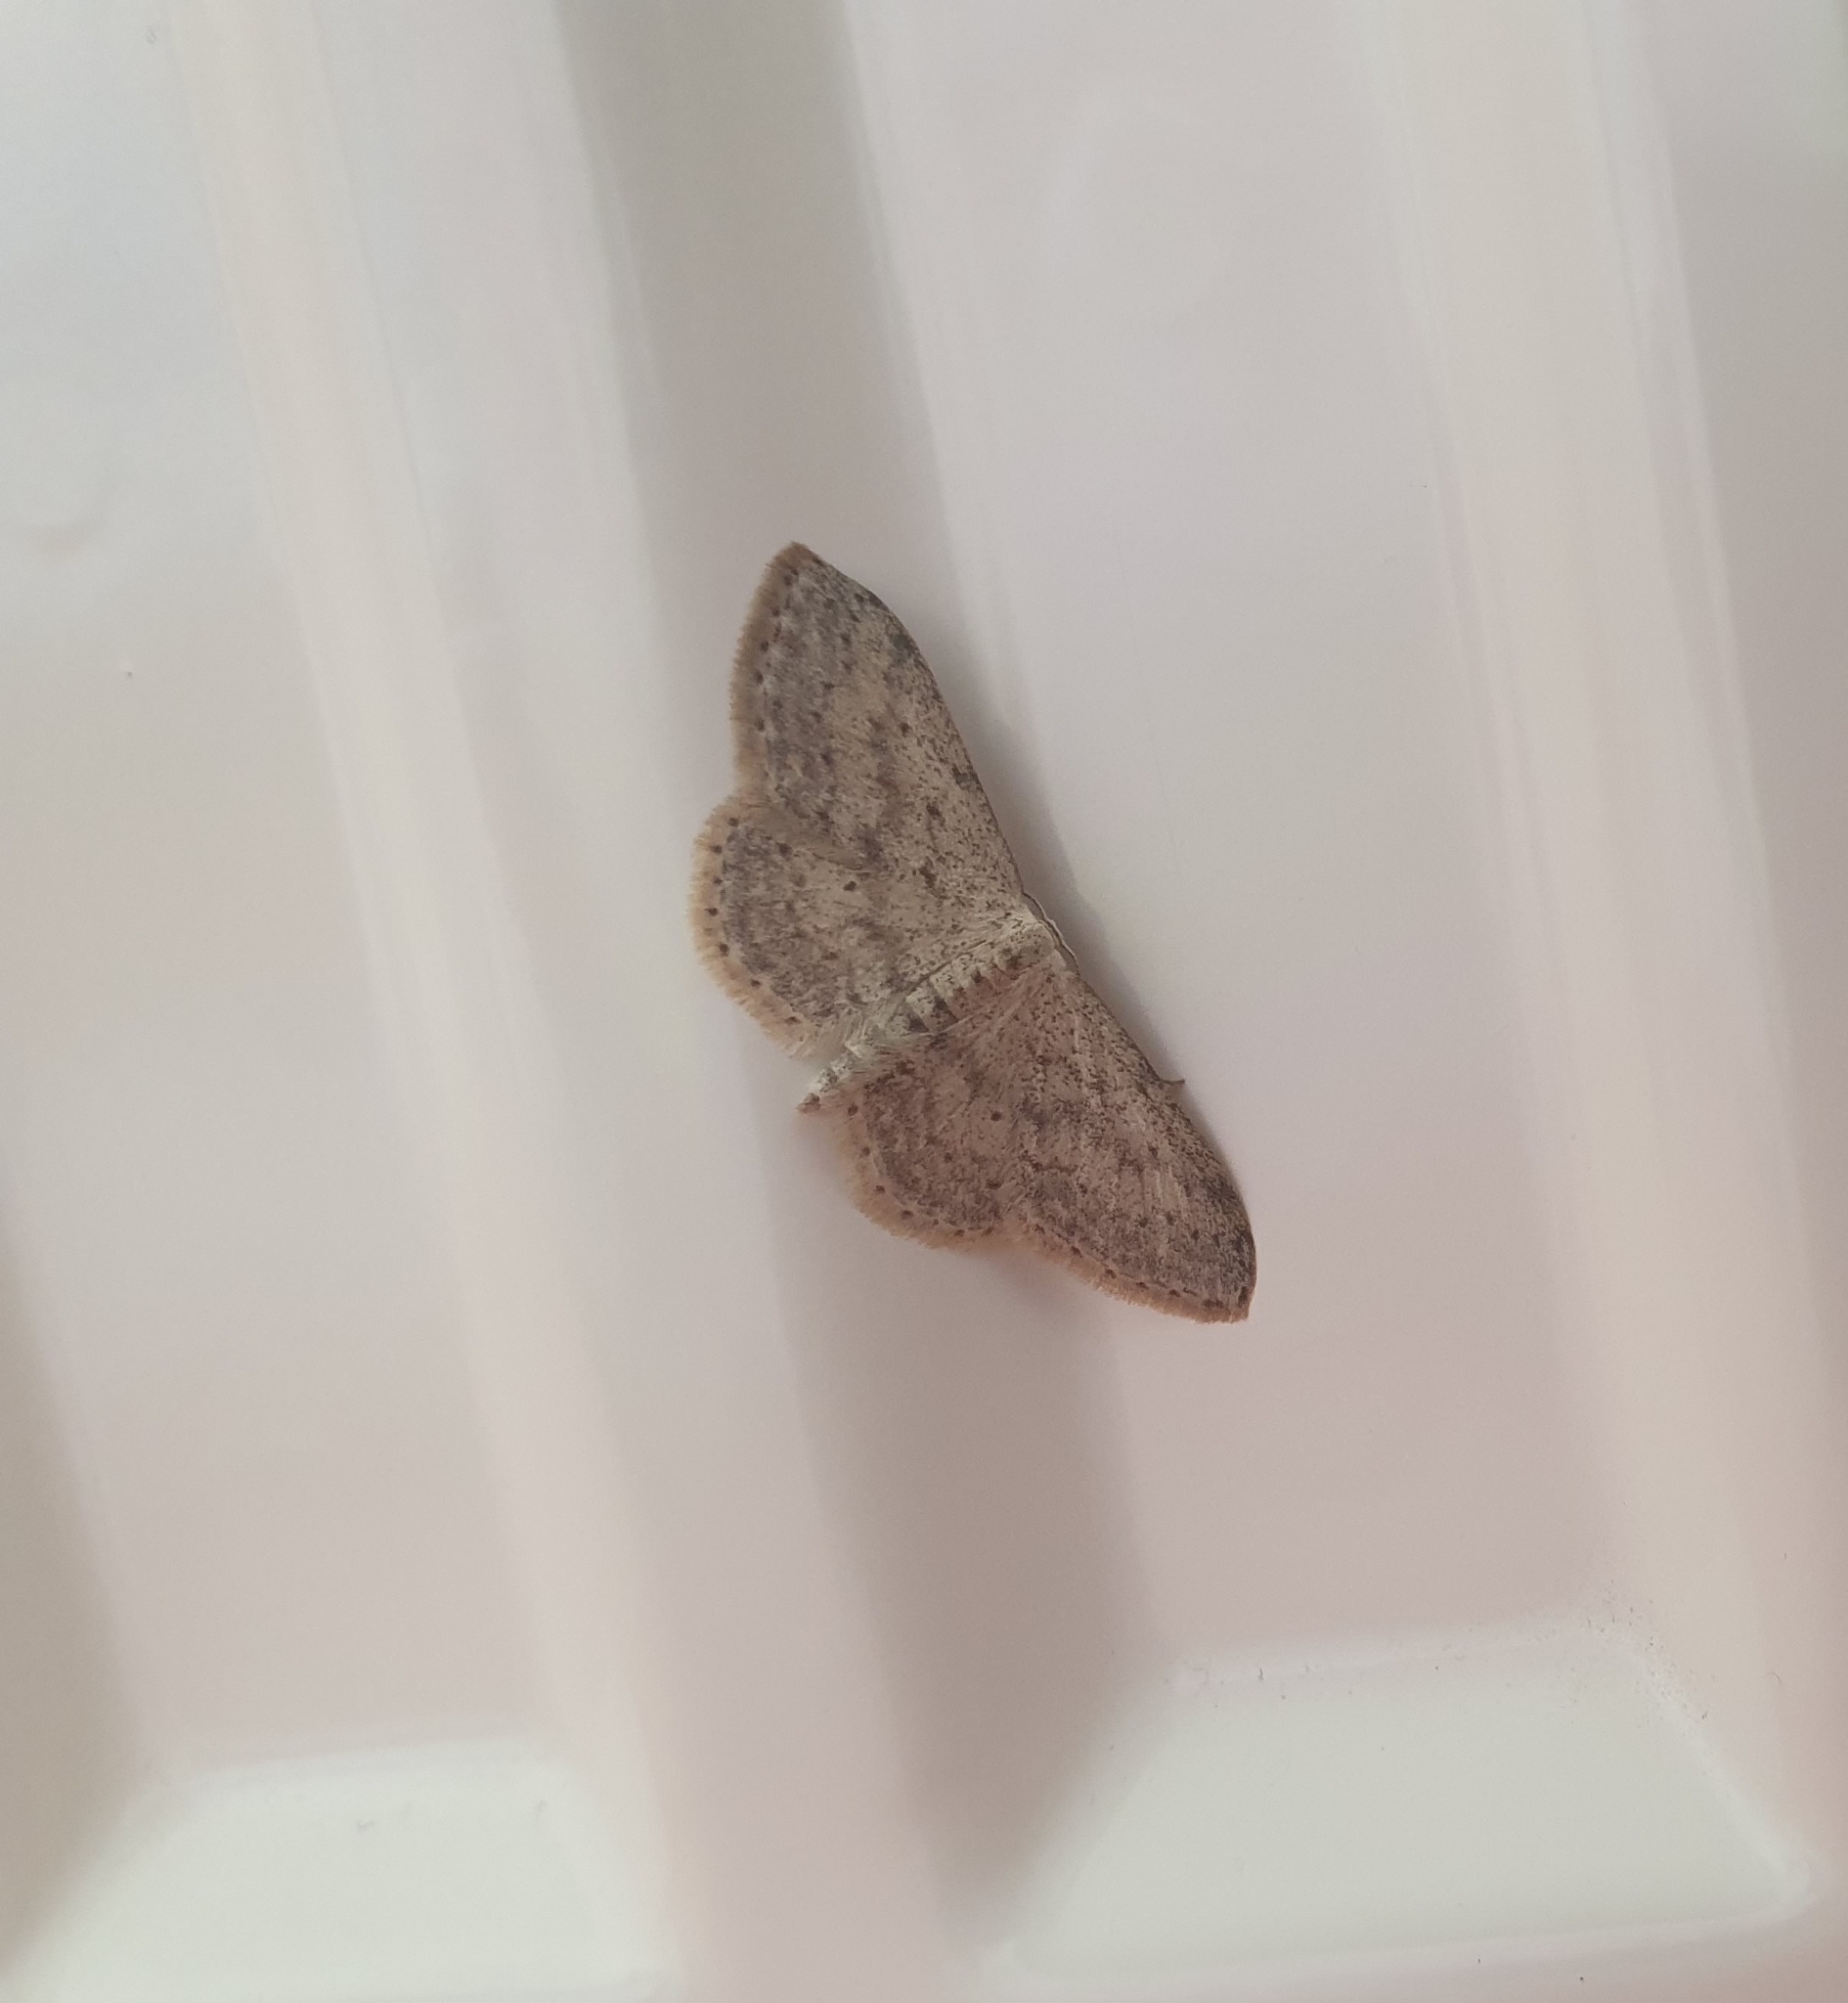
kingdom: Animalia
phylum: Arthropoda
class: Insecta
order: Lepidoptera
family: Geometridae
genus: Idaea
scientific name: Idaea seriata
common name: Small dusty wave
